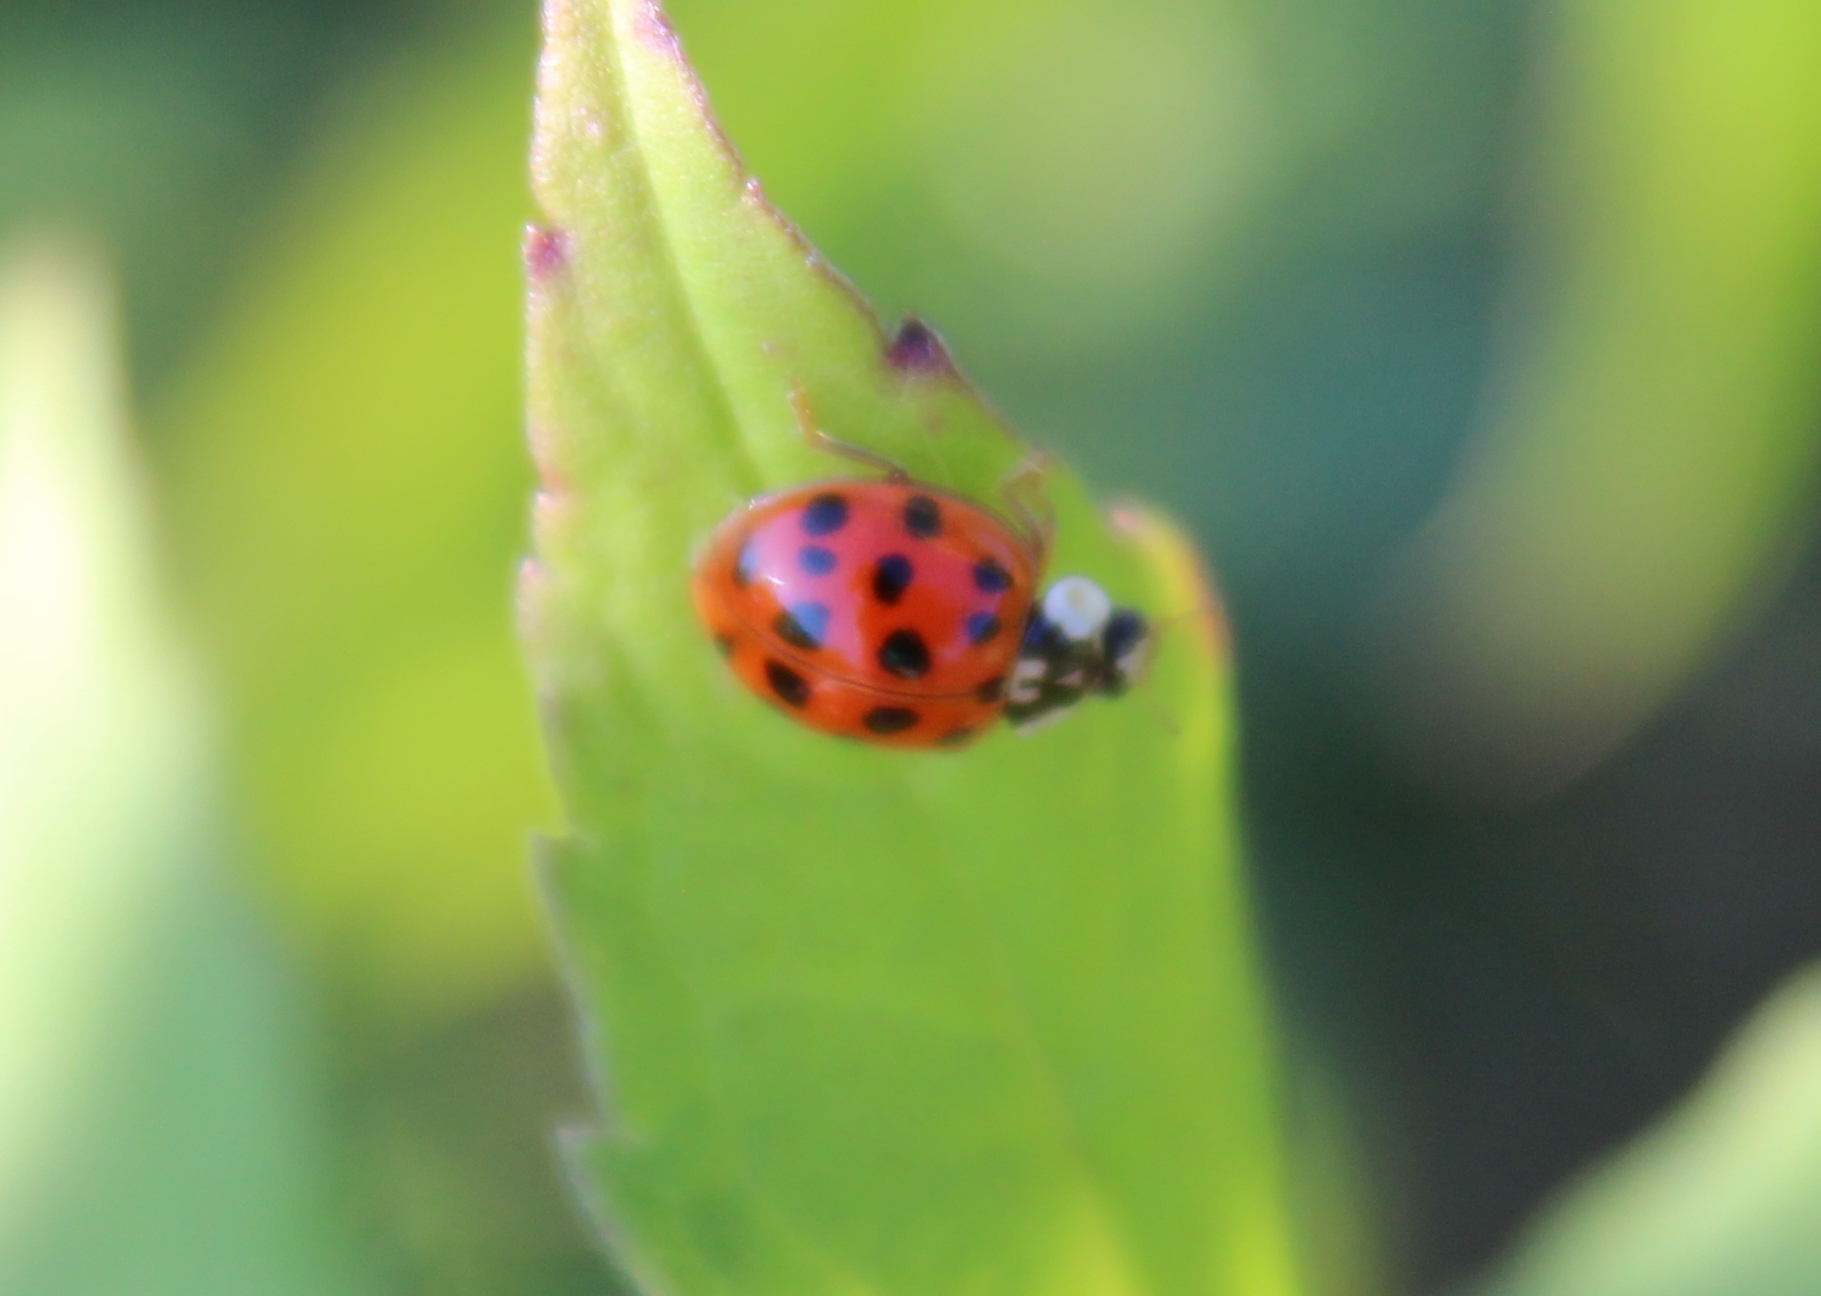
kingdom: Animalia
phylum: Arthropoda
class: Insecta
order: Coleoptera
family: Coccinellidae
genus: Harmonia
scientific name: Harmonia axyridis
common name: Harlequin ladybird
